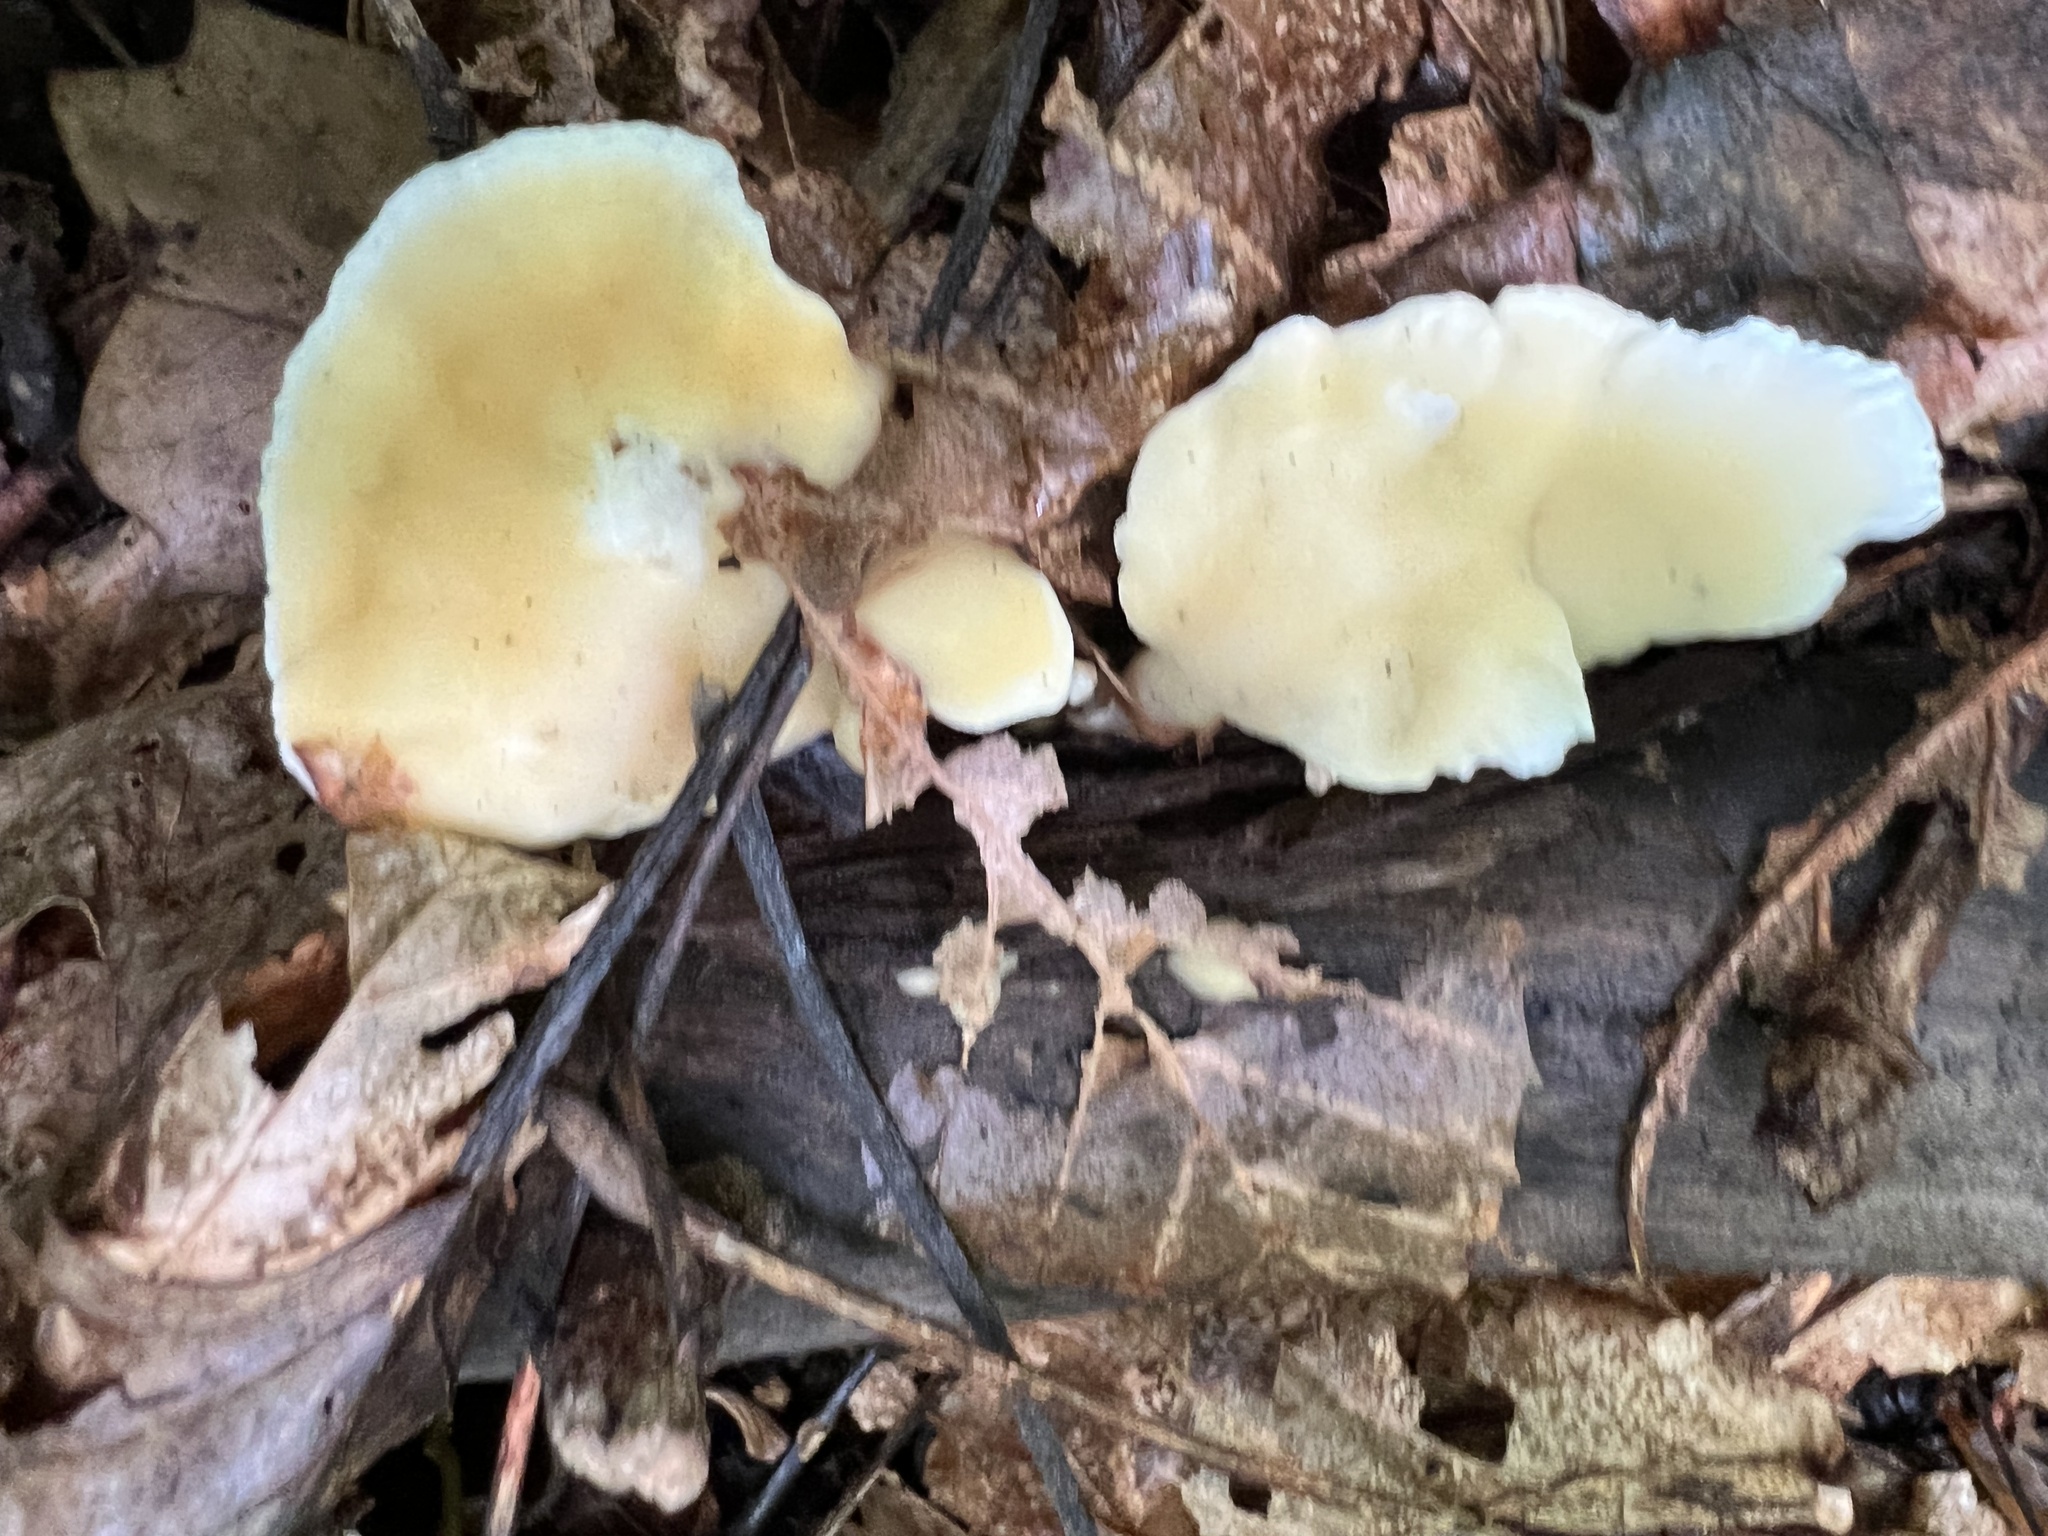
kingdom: Fungi
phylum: Basidiomycota
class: Agaricomycetes
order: Polyporales
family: Steccherinaceae
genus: Loweomyces
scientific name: Loweomyces fractipes
